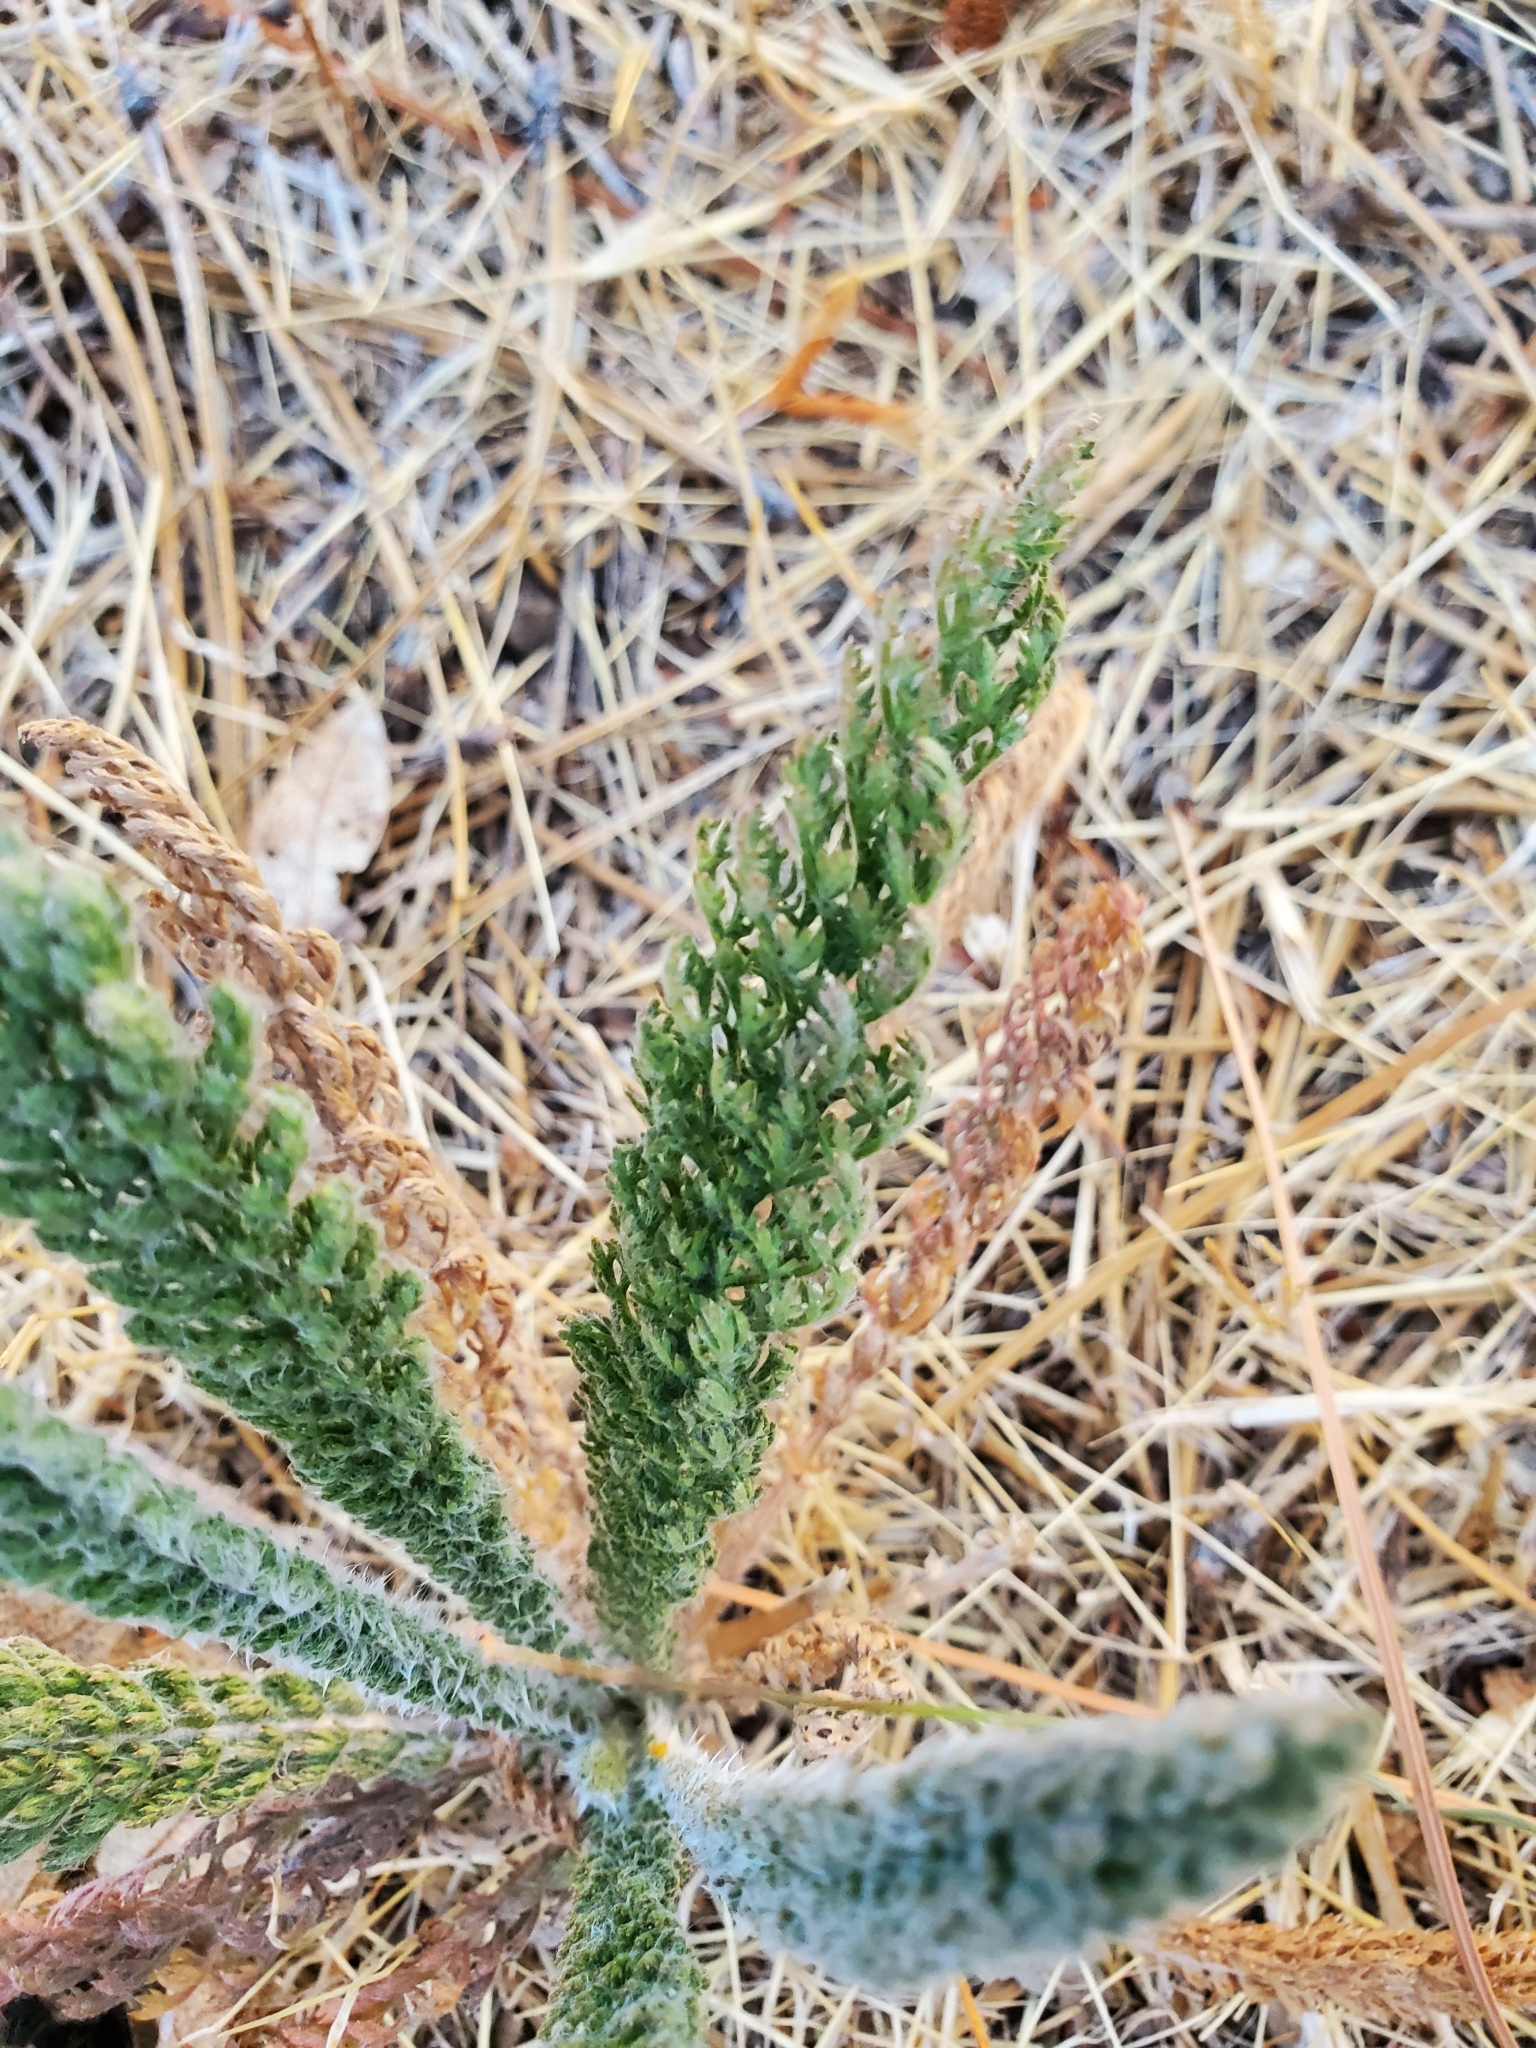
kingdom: Plantae
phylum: Tracheophyta
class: Magnoliopsida
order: Asterales
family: Asteraceae
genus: Achillea
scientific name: Achillea millefolium
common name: Yarrow
